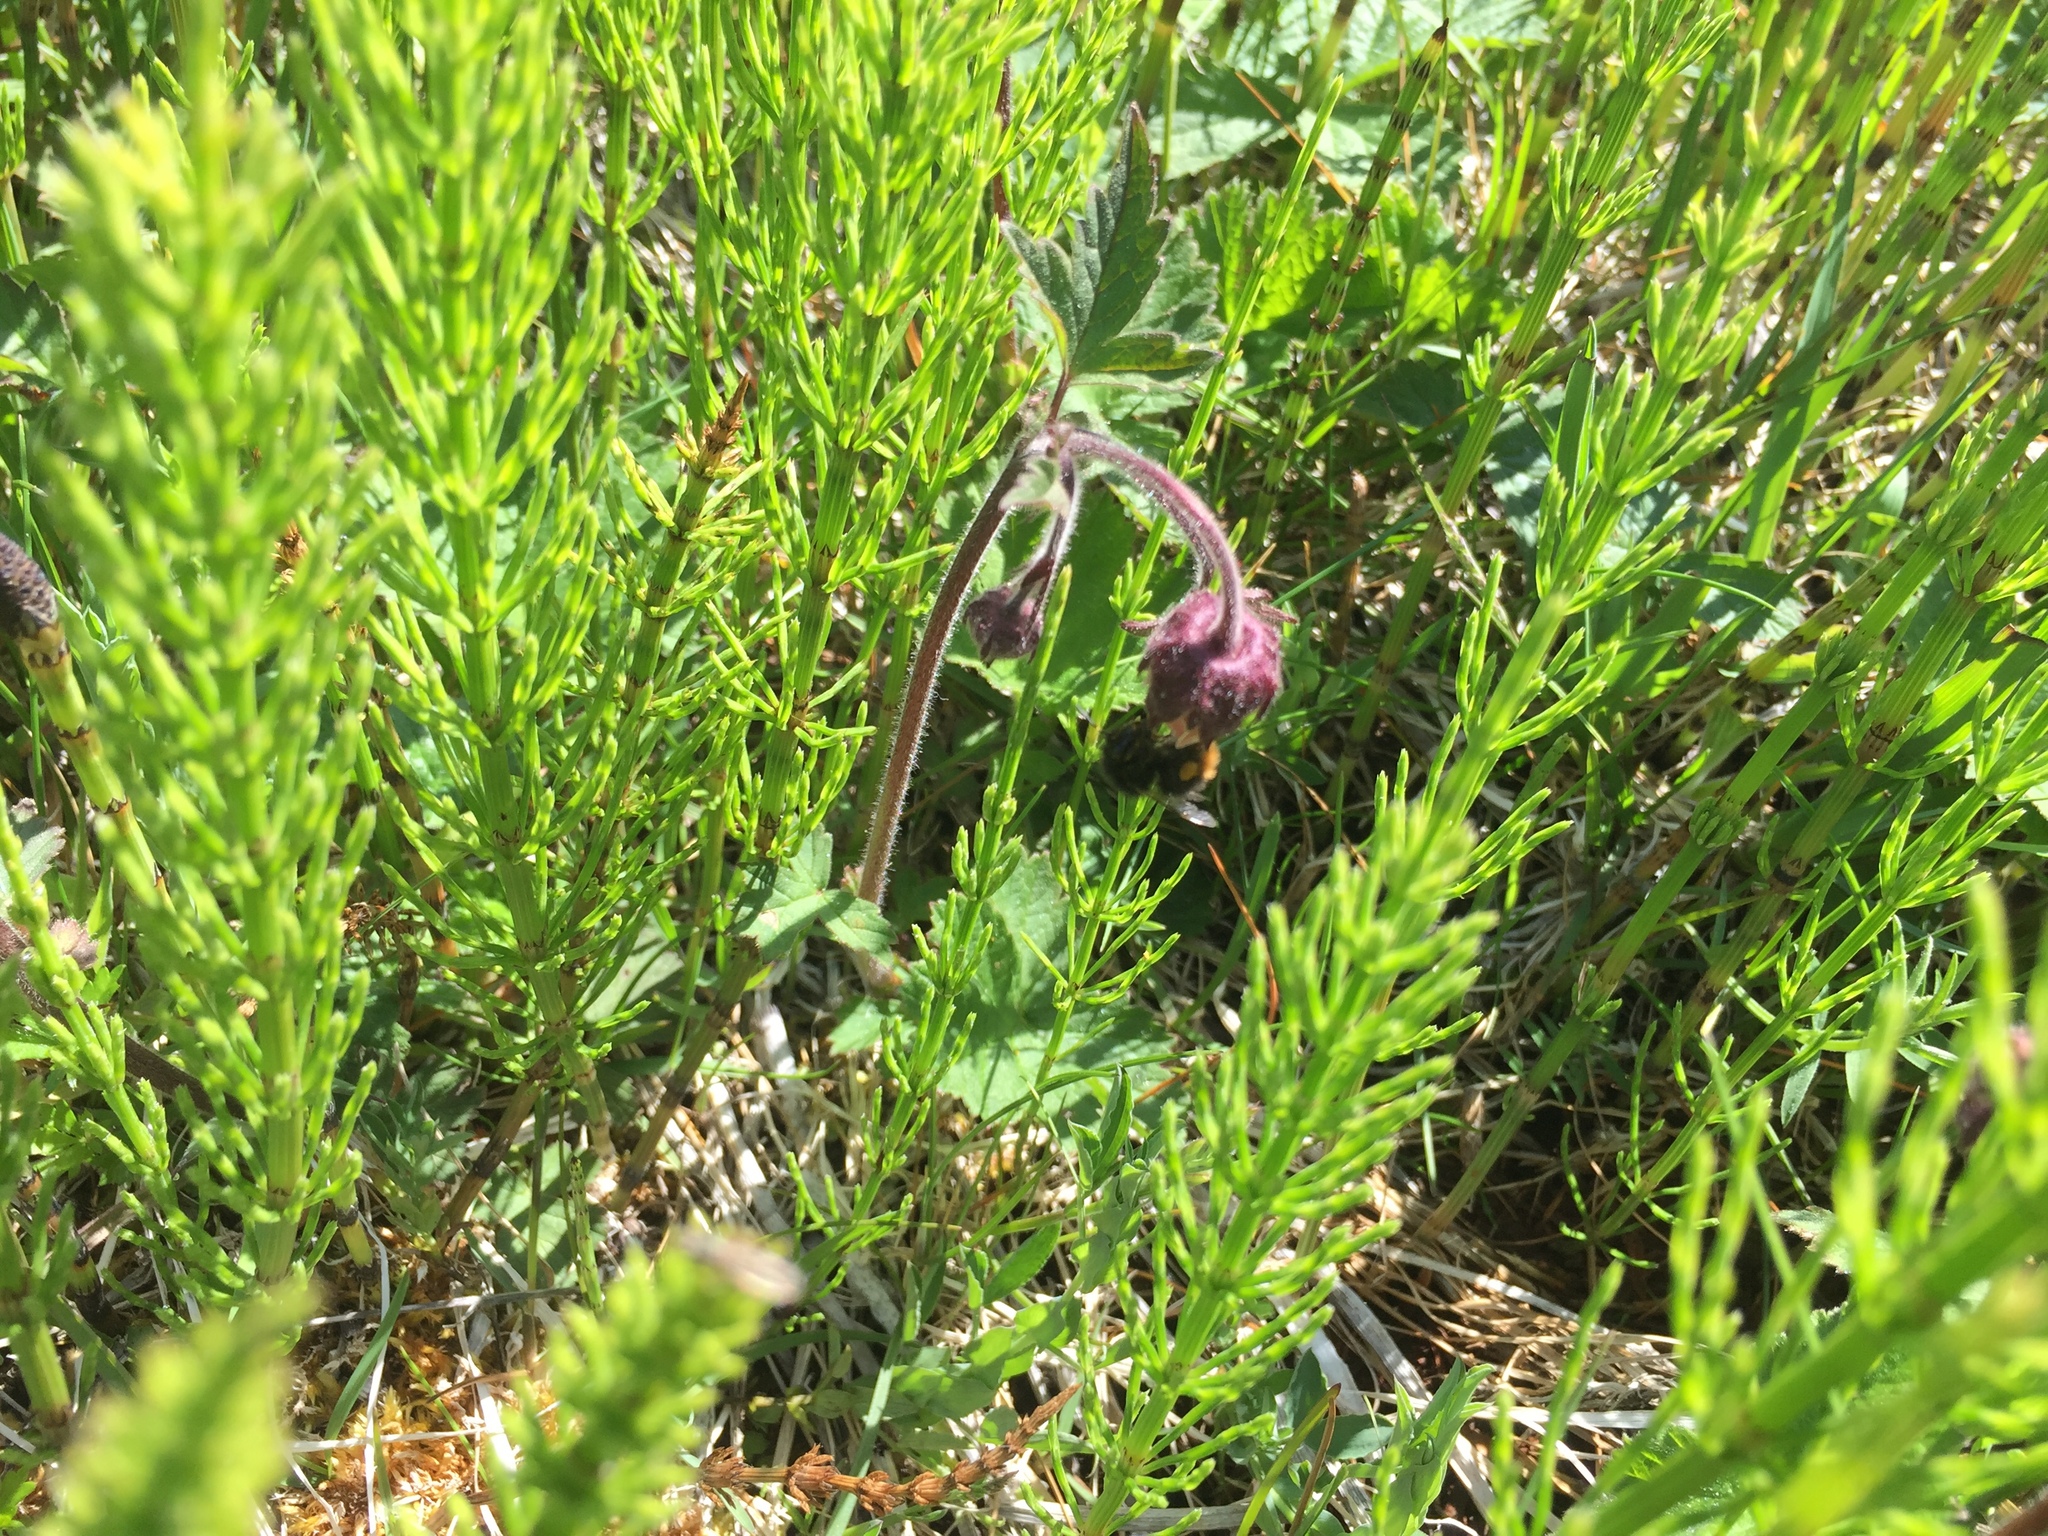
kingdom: Plantae
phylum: Tracheophyta
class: Polypodiopsida
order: Equisetales
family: Equisetaceae
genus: Equisetum
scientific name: Equisetum arvense
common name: Field horsetail
